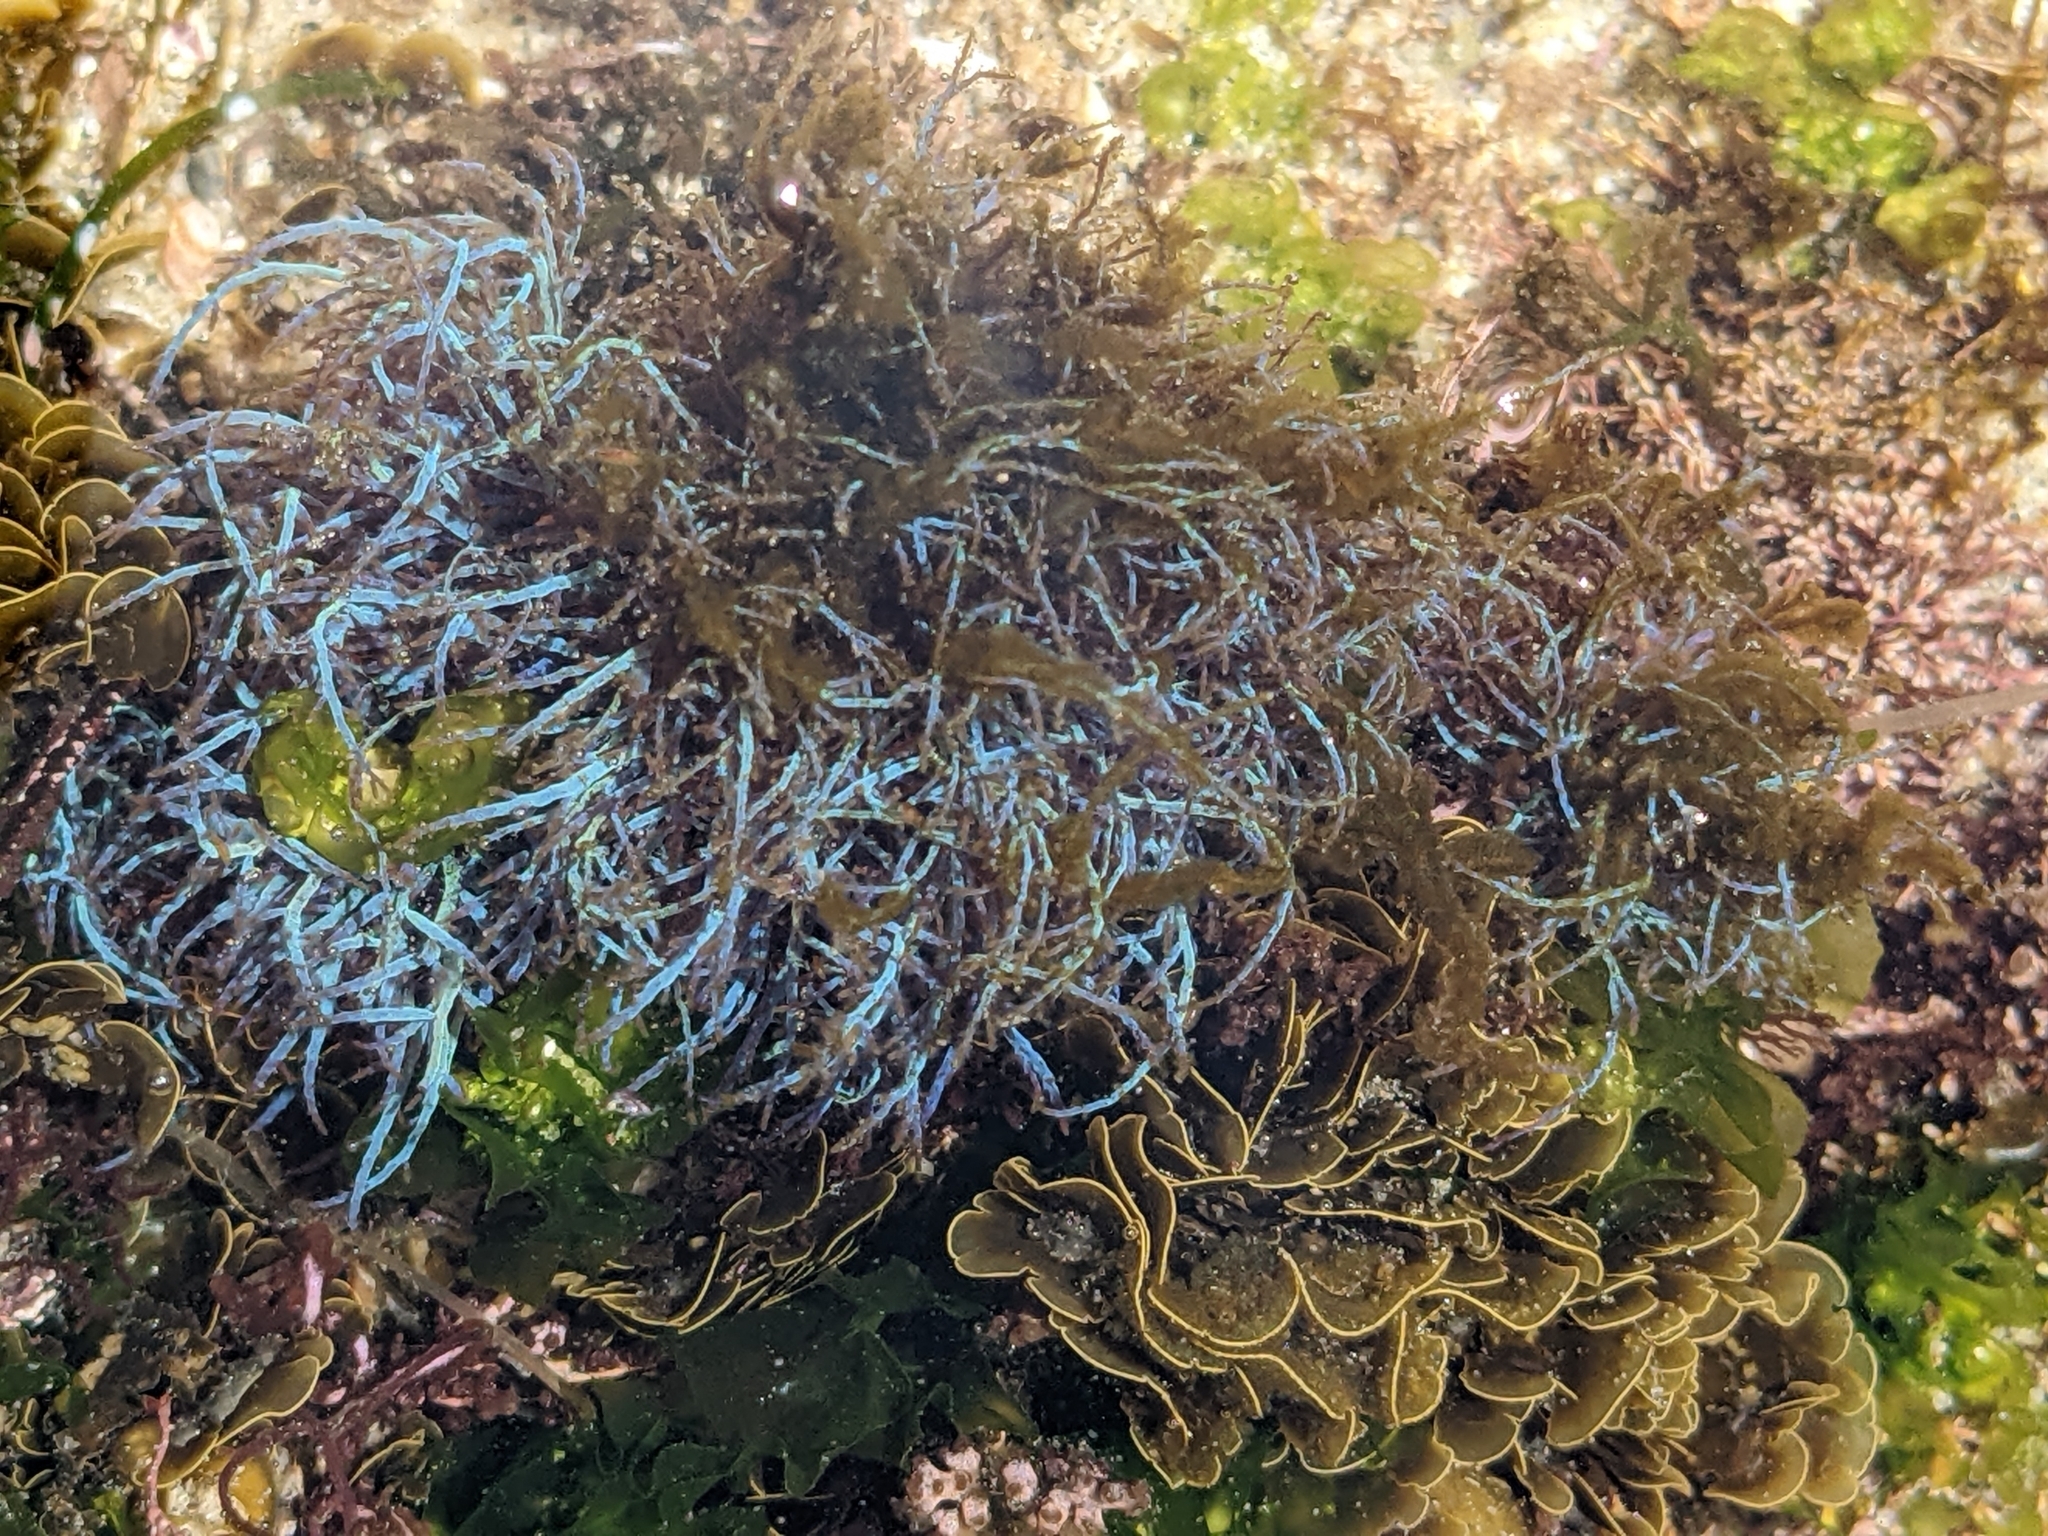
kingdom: Plantae
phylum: Rhodophyta
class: Florideophyceae
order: Ceramiales
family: Rhodomelaceae
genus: Chondria
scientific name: Chondria acrorhizophora
